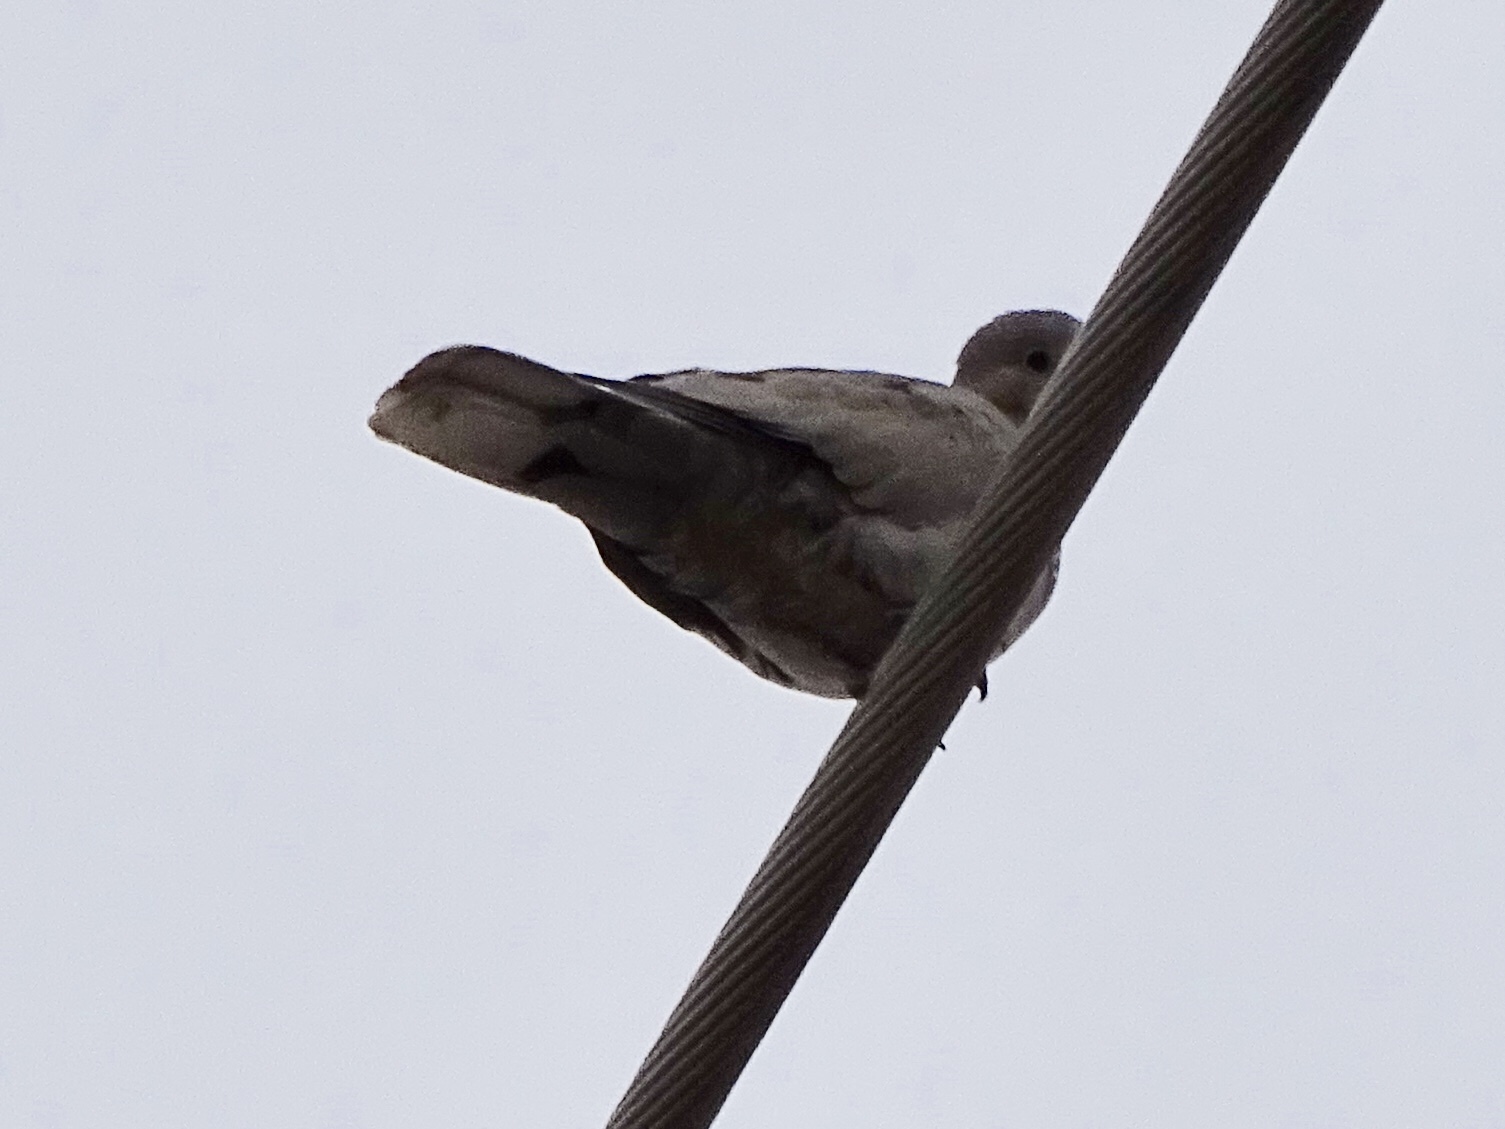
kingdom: Animalia
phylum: Chordata
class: Aves
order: Columbiformes
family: Columbidae
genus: Streptopelia
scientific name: Streptopelia decaocto
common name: Eurasian collared dove
